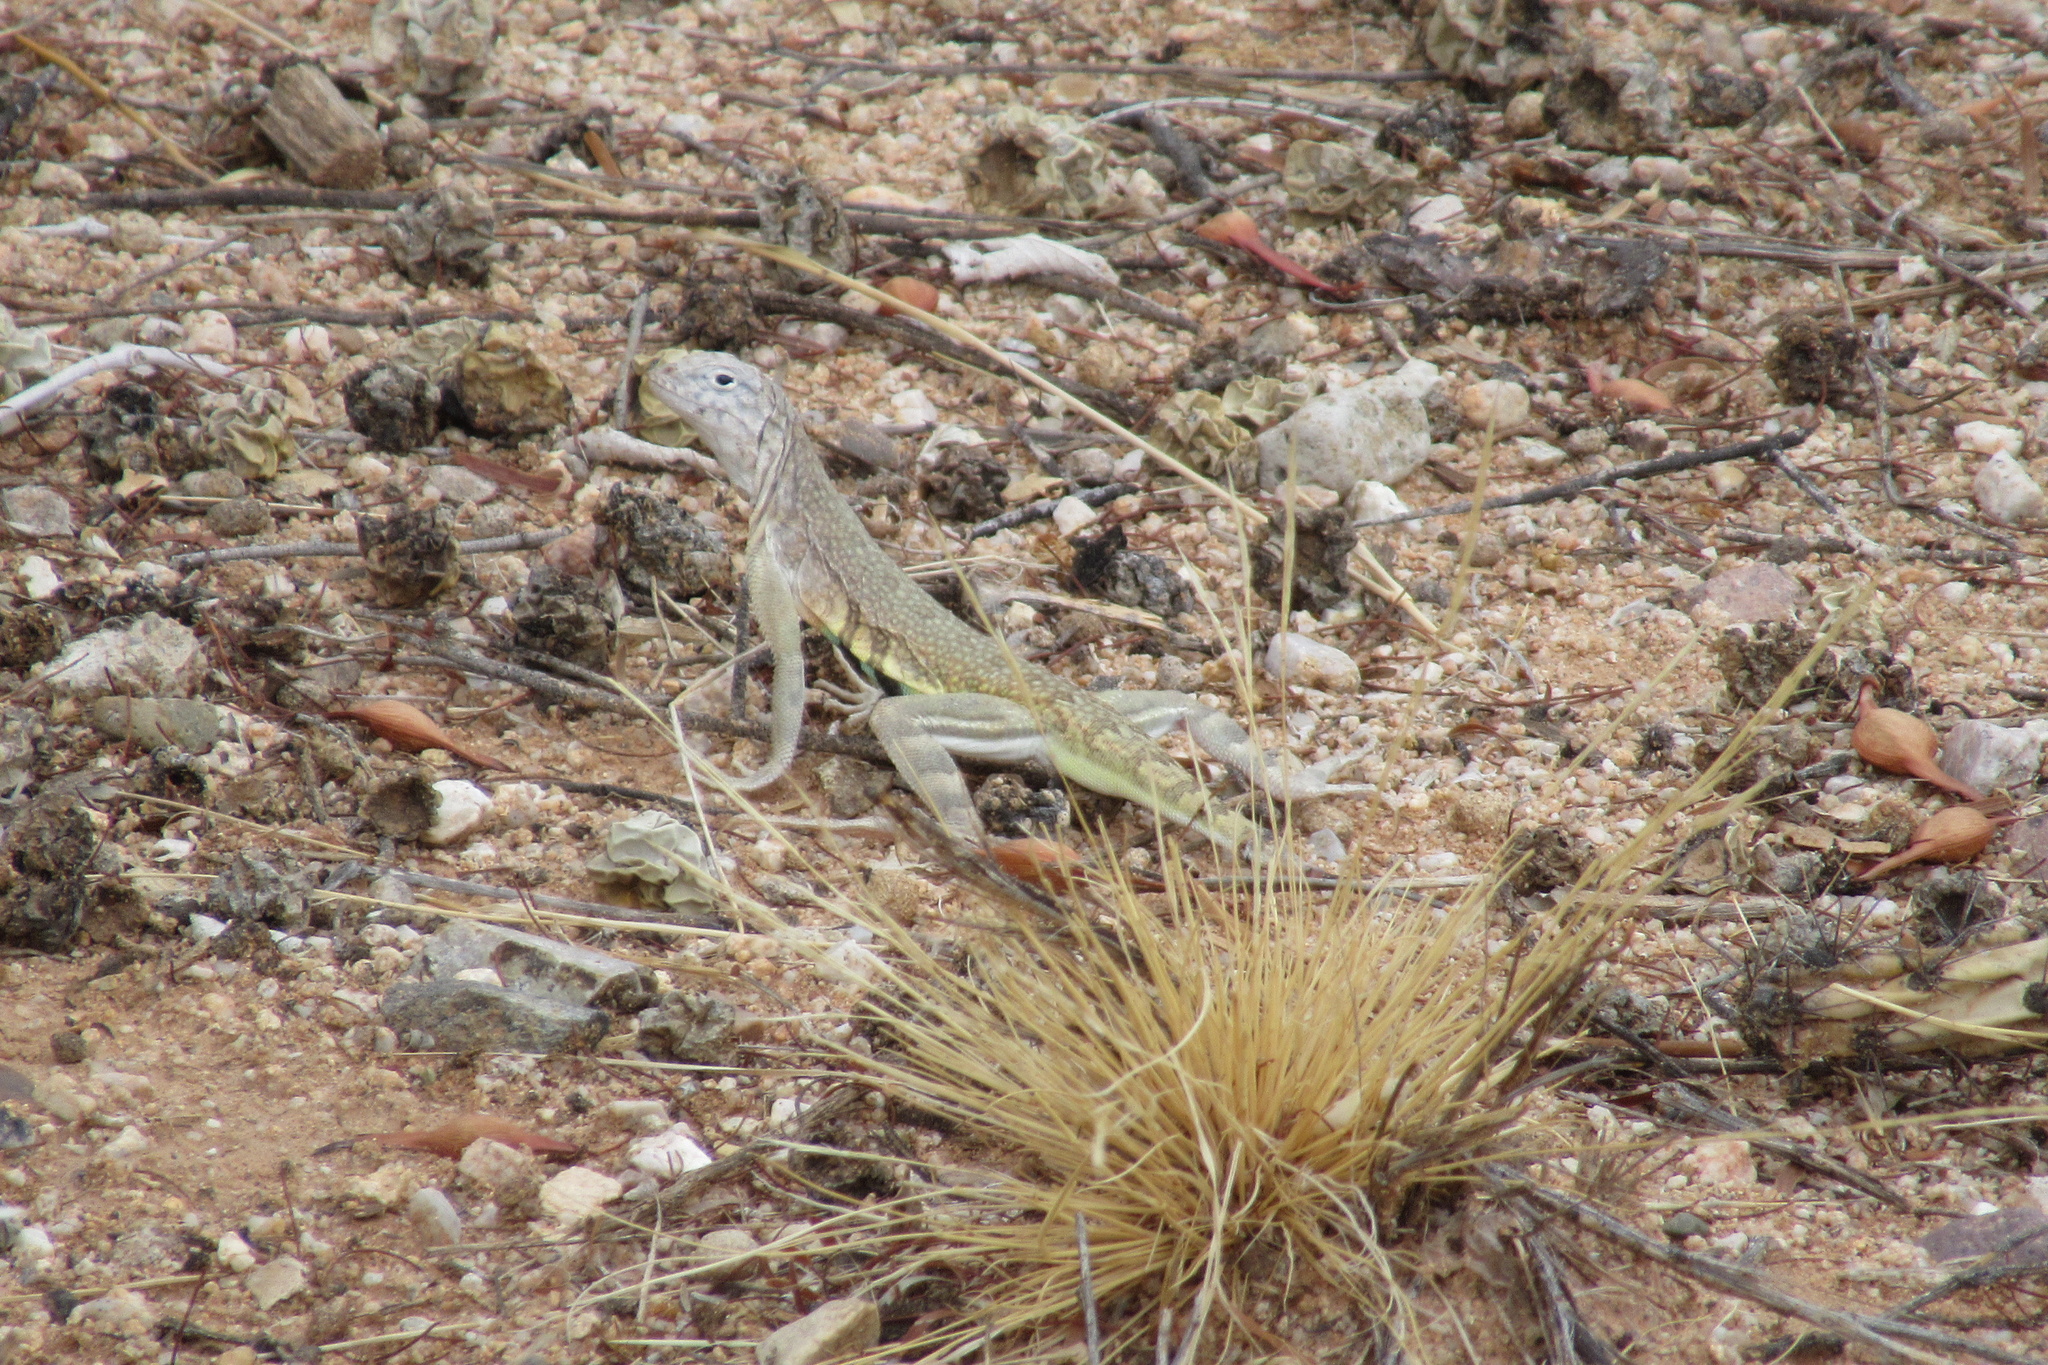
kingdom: Animalia
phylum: Chordata
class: Squamata
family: Phrynosomatidae
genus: Callisaurus
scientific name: Callisaurus draconoides
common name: Zebra-tailed lizard
